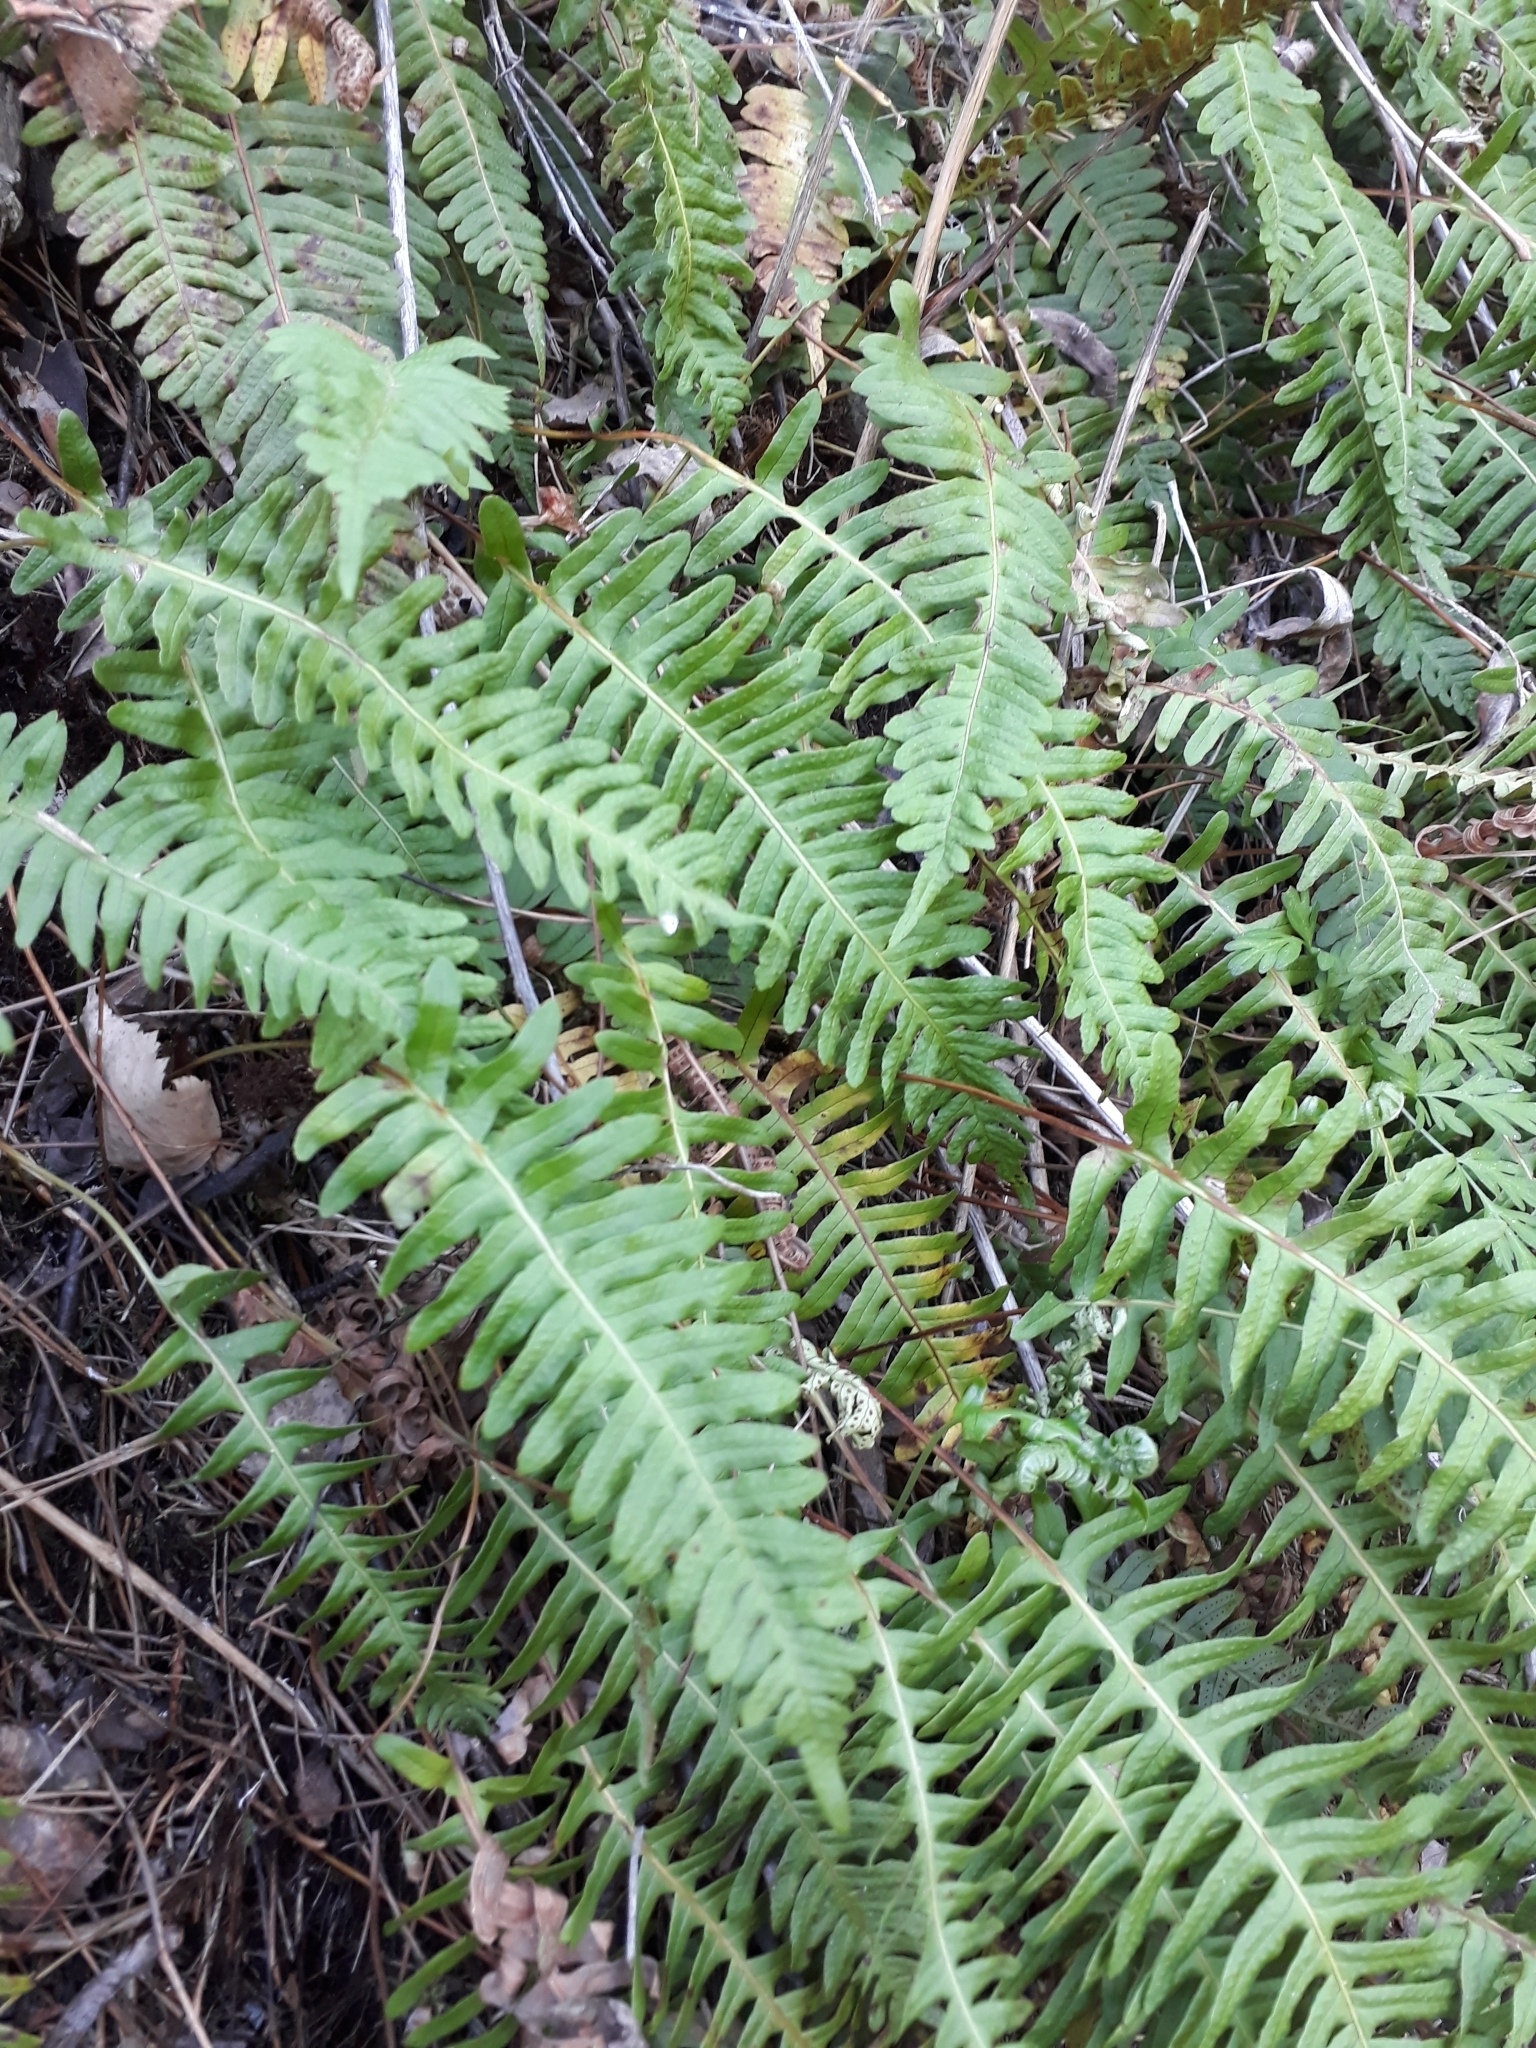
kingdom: Plantae
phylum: Tracheophyta
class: Polypodiopsida
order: Polypodiales
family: Polypodiaceae
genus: Polypodium
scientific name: Polypodium sibiricum
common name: Siberian polypody
